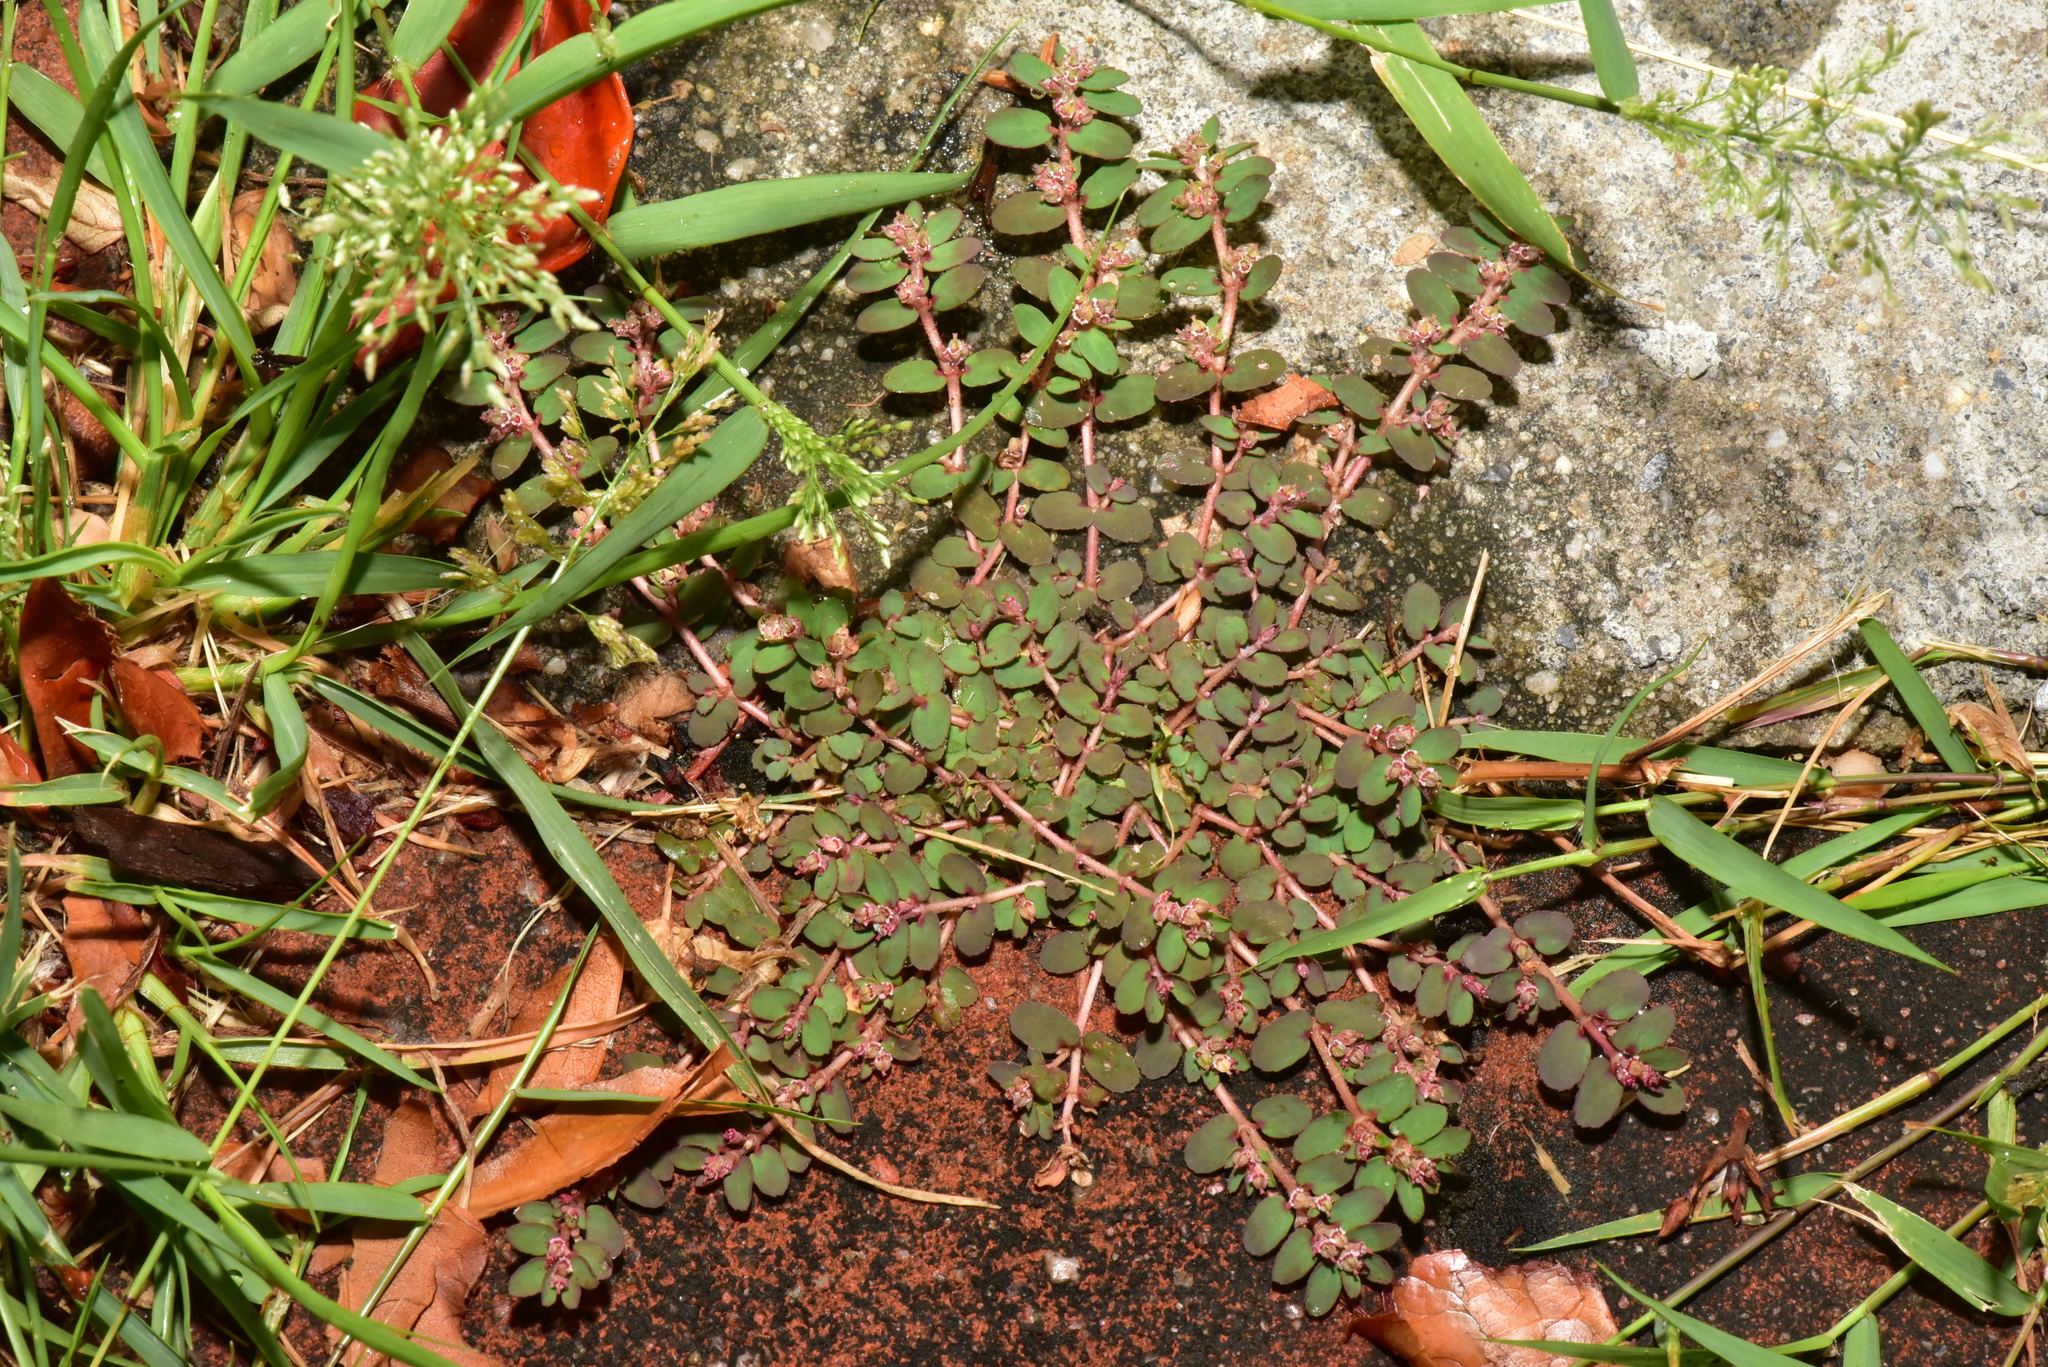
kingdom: Plantae
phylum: Tracheophyta
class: Magnoliopsida
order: Malpighiales
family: Euphorbiaceae
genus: Euphorbia
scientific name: Euphorbia thymifolia
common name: Gulf sandmat
